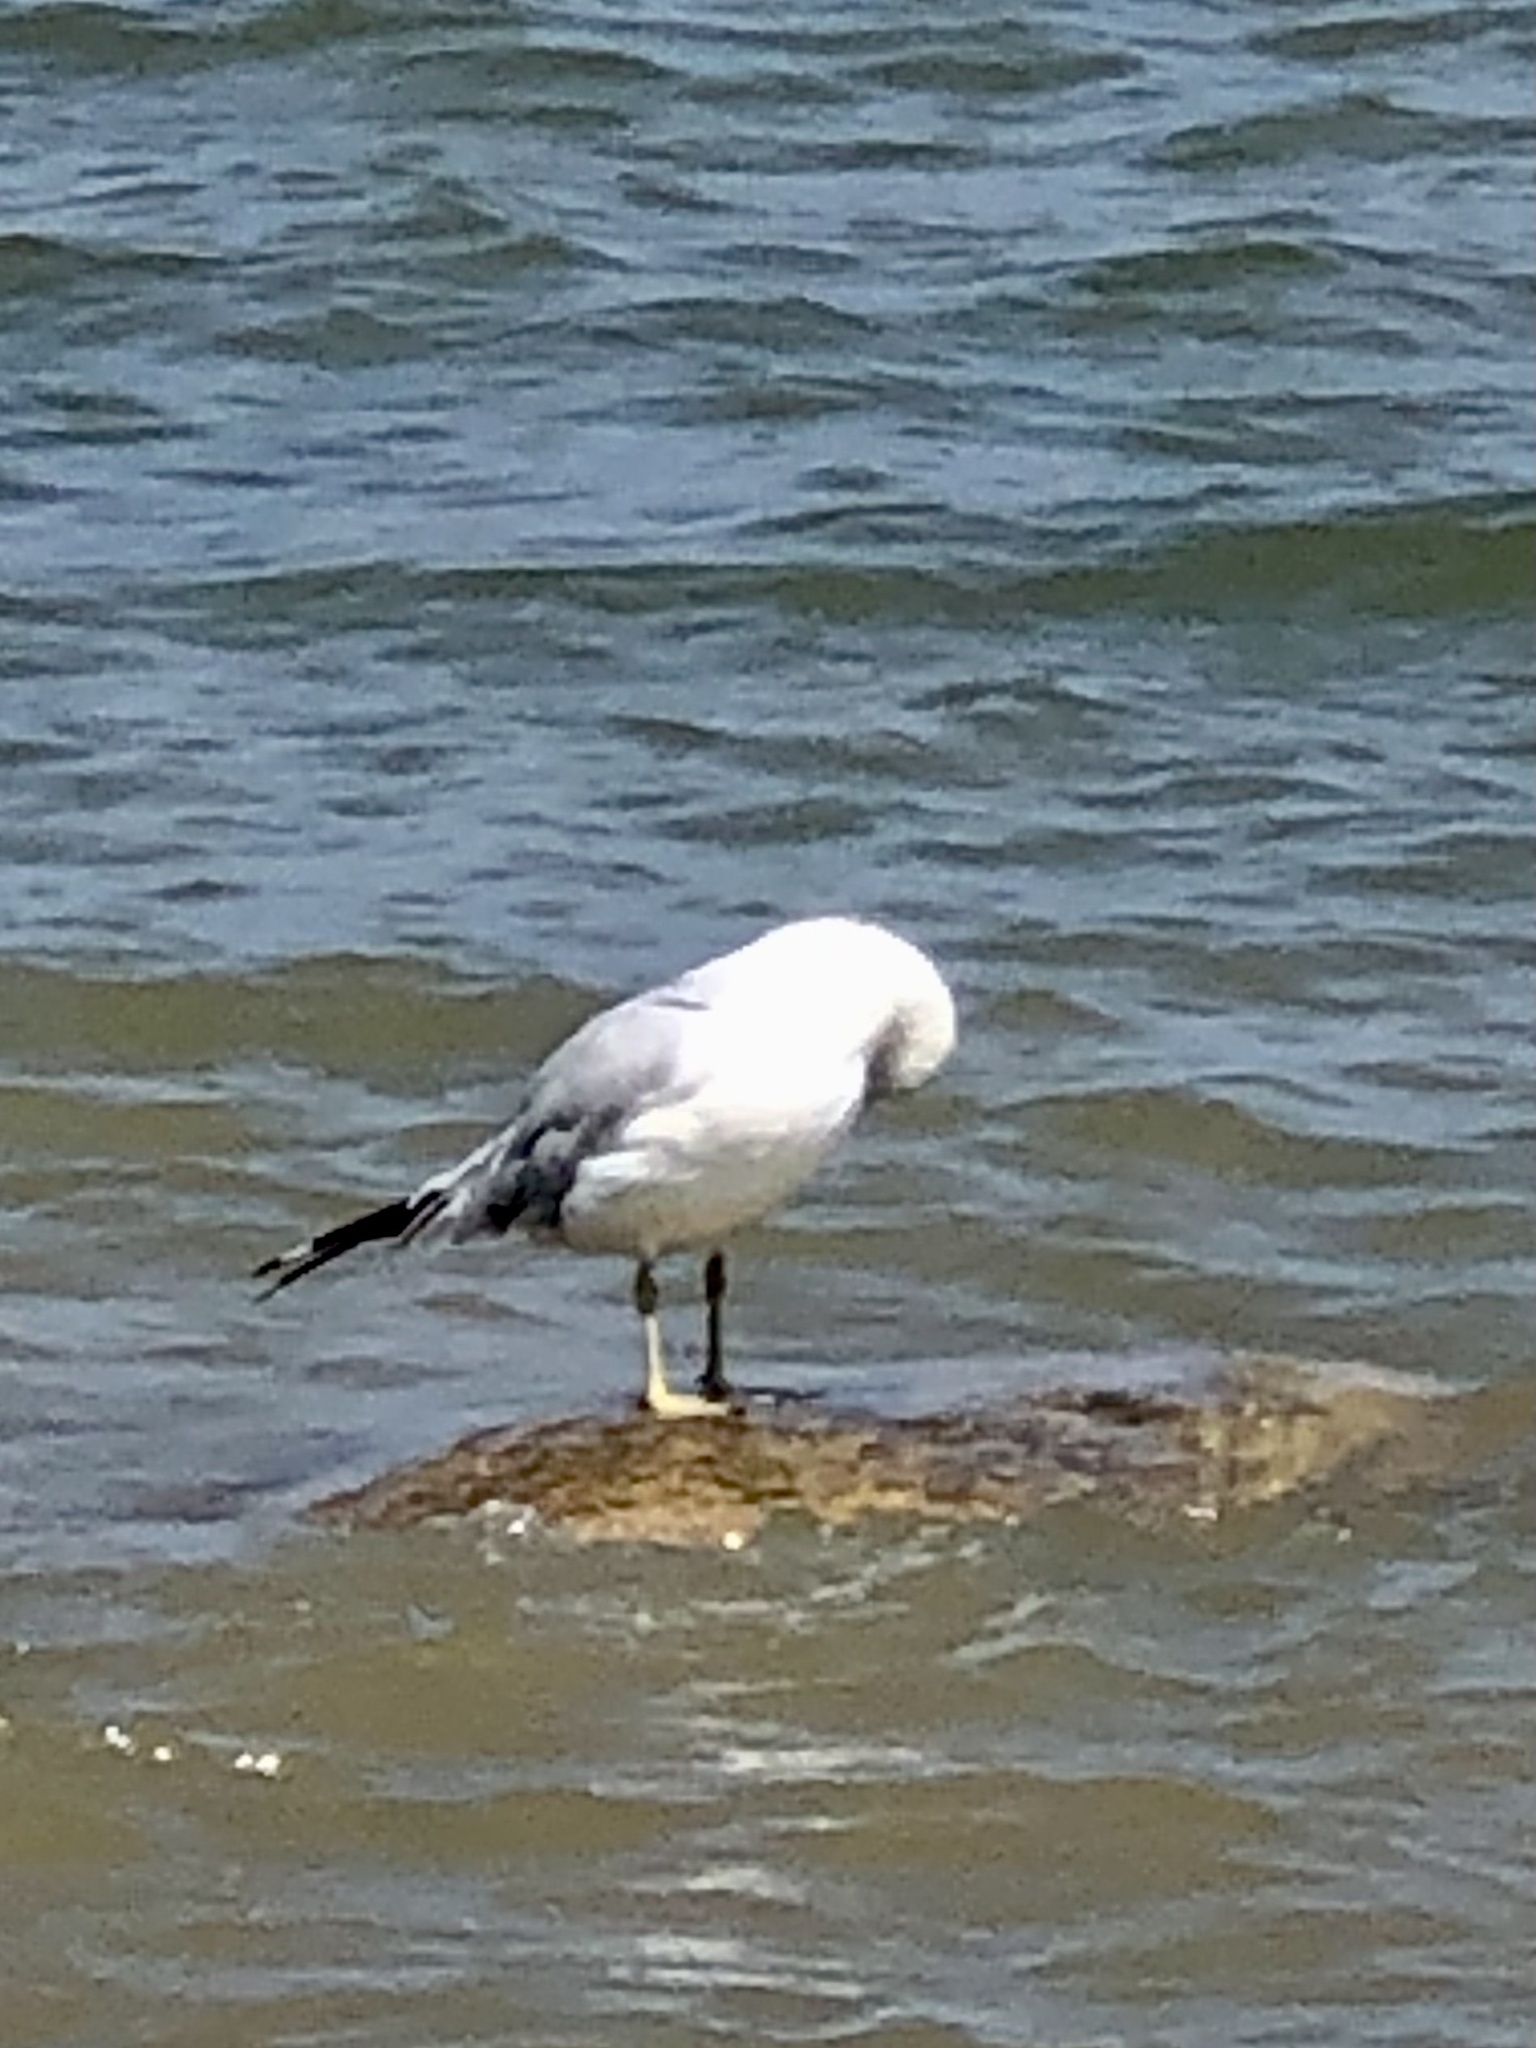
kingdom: Animalia
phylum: Chordata
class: Aves
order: Charadriiformes
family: Laridae
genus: Larus
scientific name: Larus delawarensis
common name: Ring-billed gull
